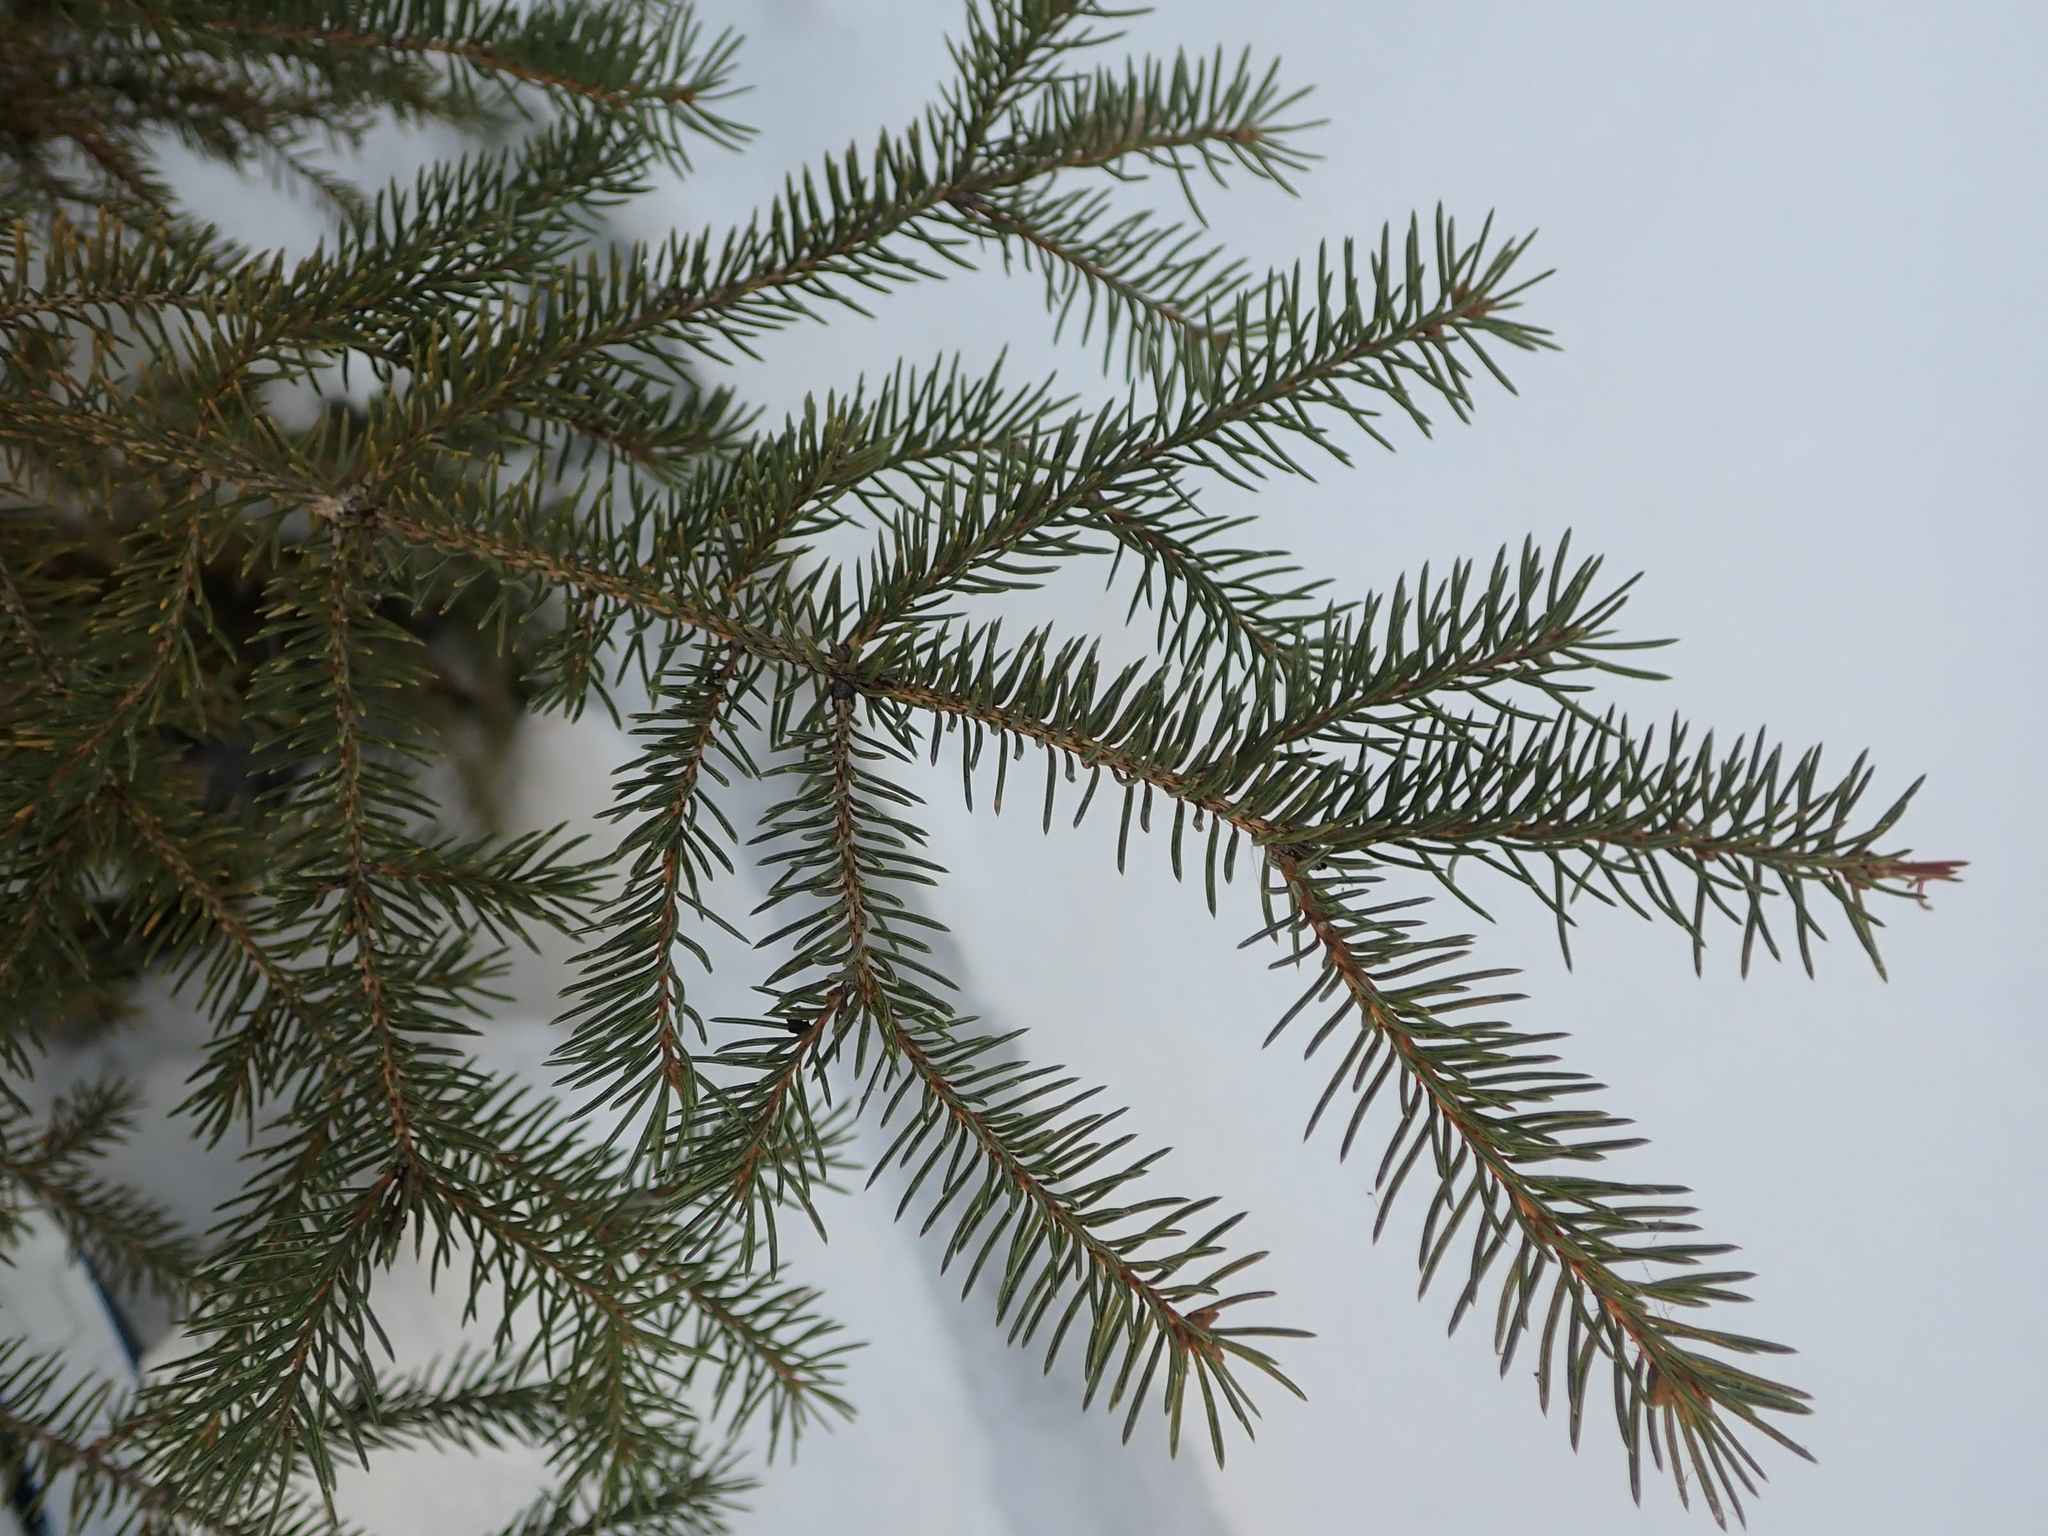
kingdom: Plantae
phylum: Tracheophyta
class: Pinopsida
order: Pinales
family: Pinaceae
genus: Picea
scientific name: Picea glauca
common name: White spruce
